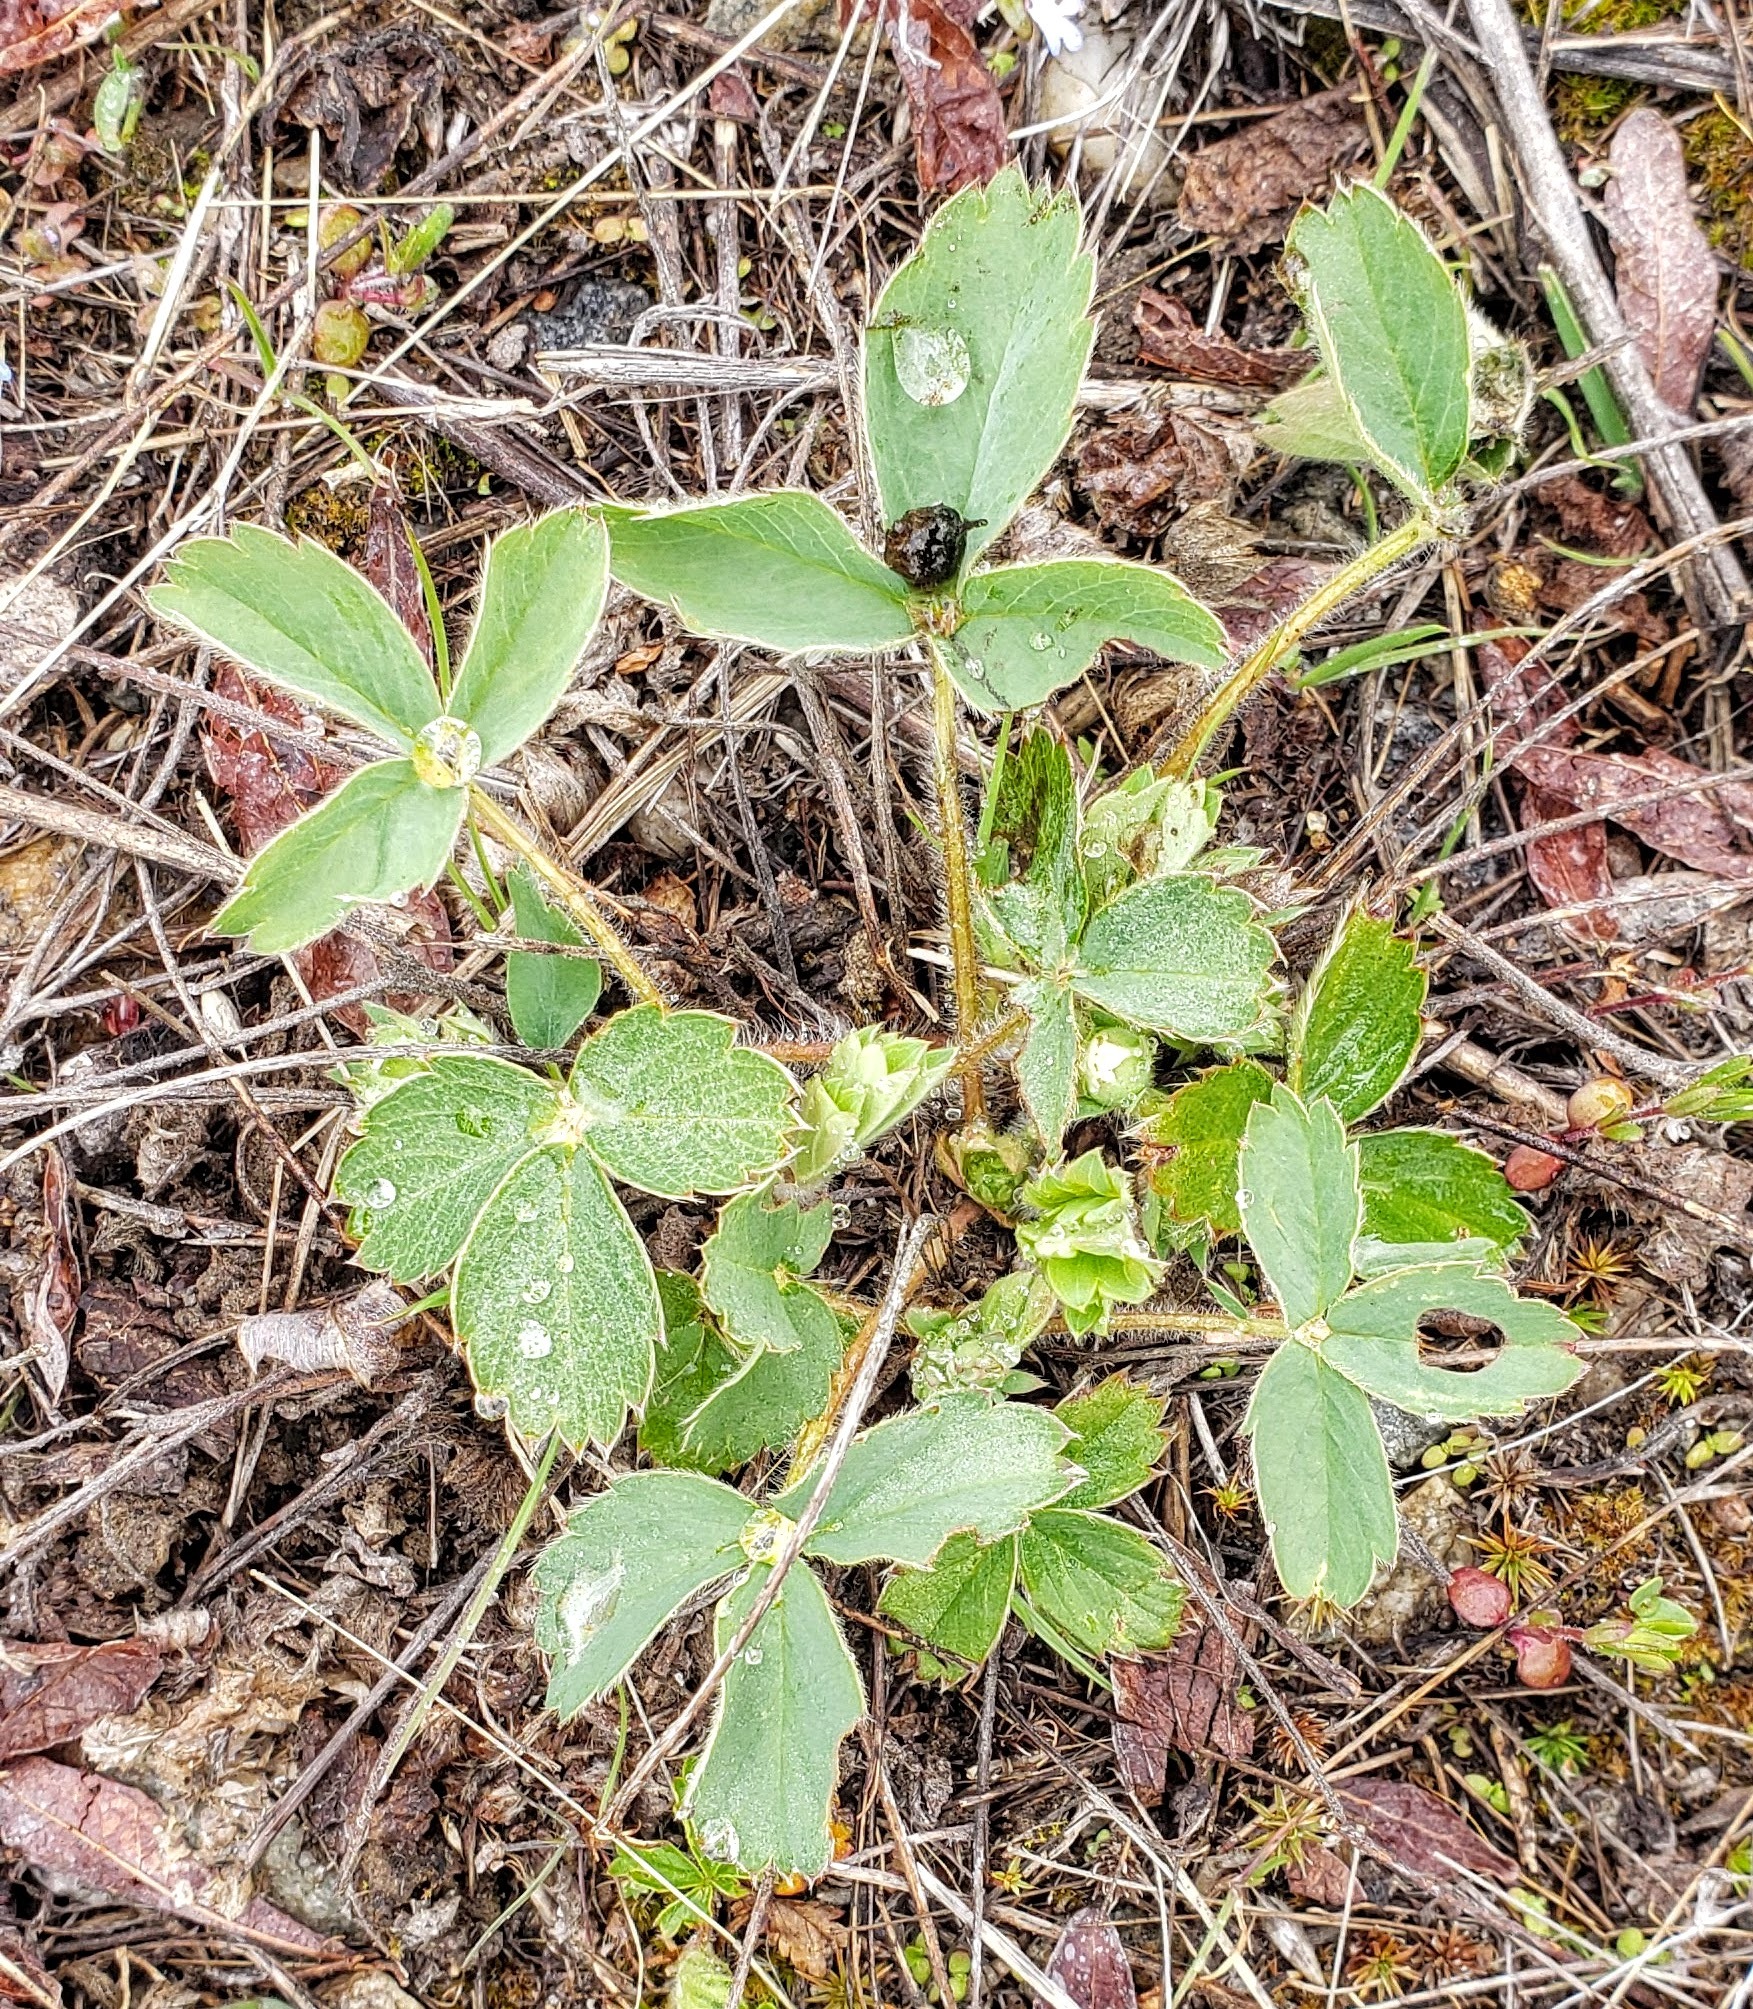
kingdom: Plantae
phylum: Tracheophyta
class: Magnoliopsida
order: Rosales
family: Rosaceae
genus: Fragaria
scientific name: Fragaria virginiana
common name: Thickleaved wild strawberry
